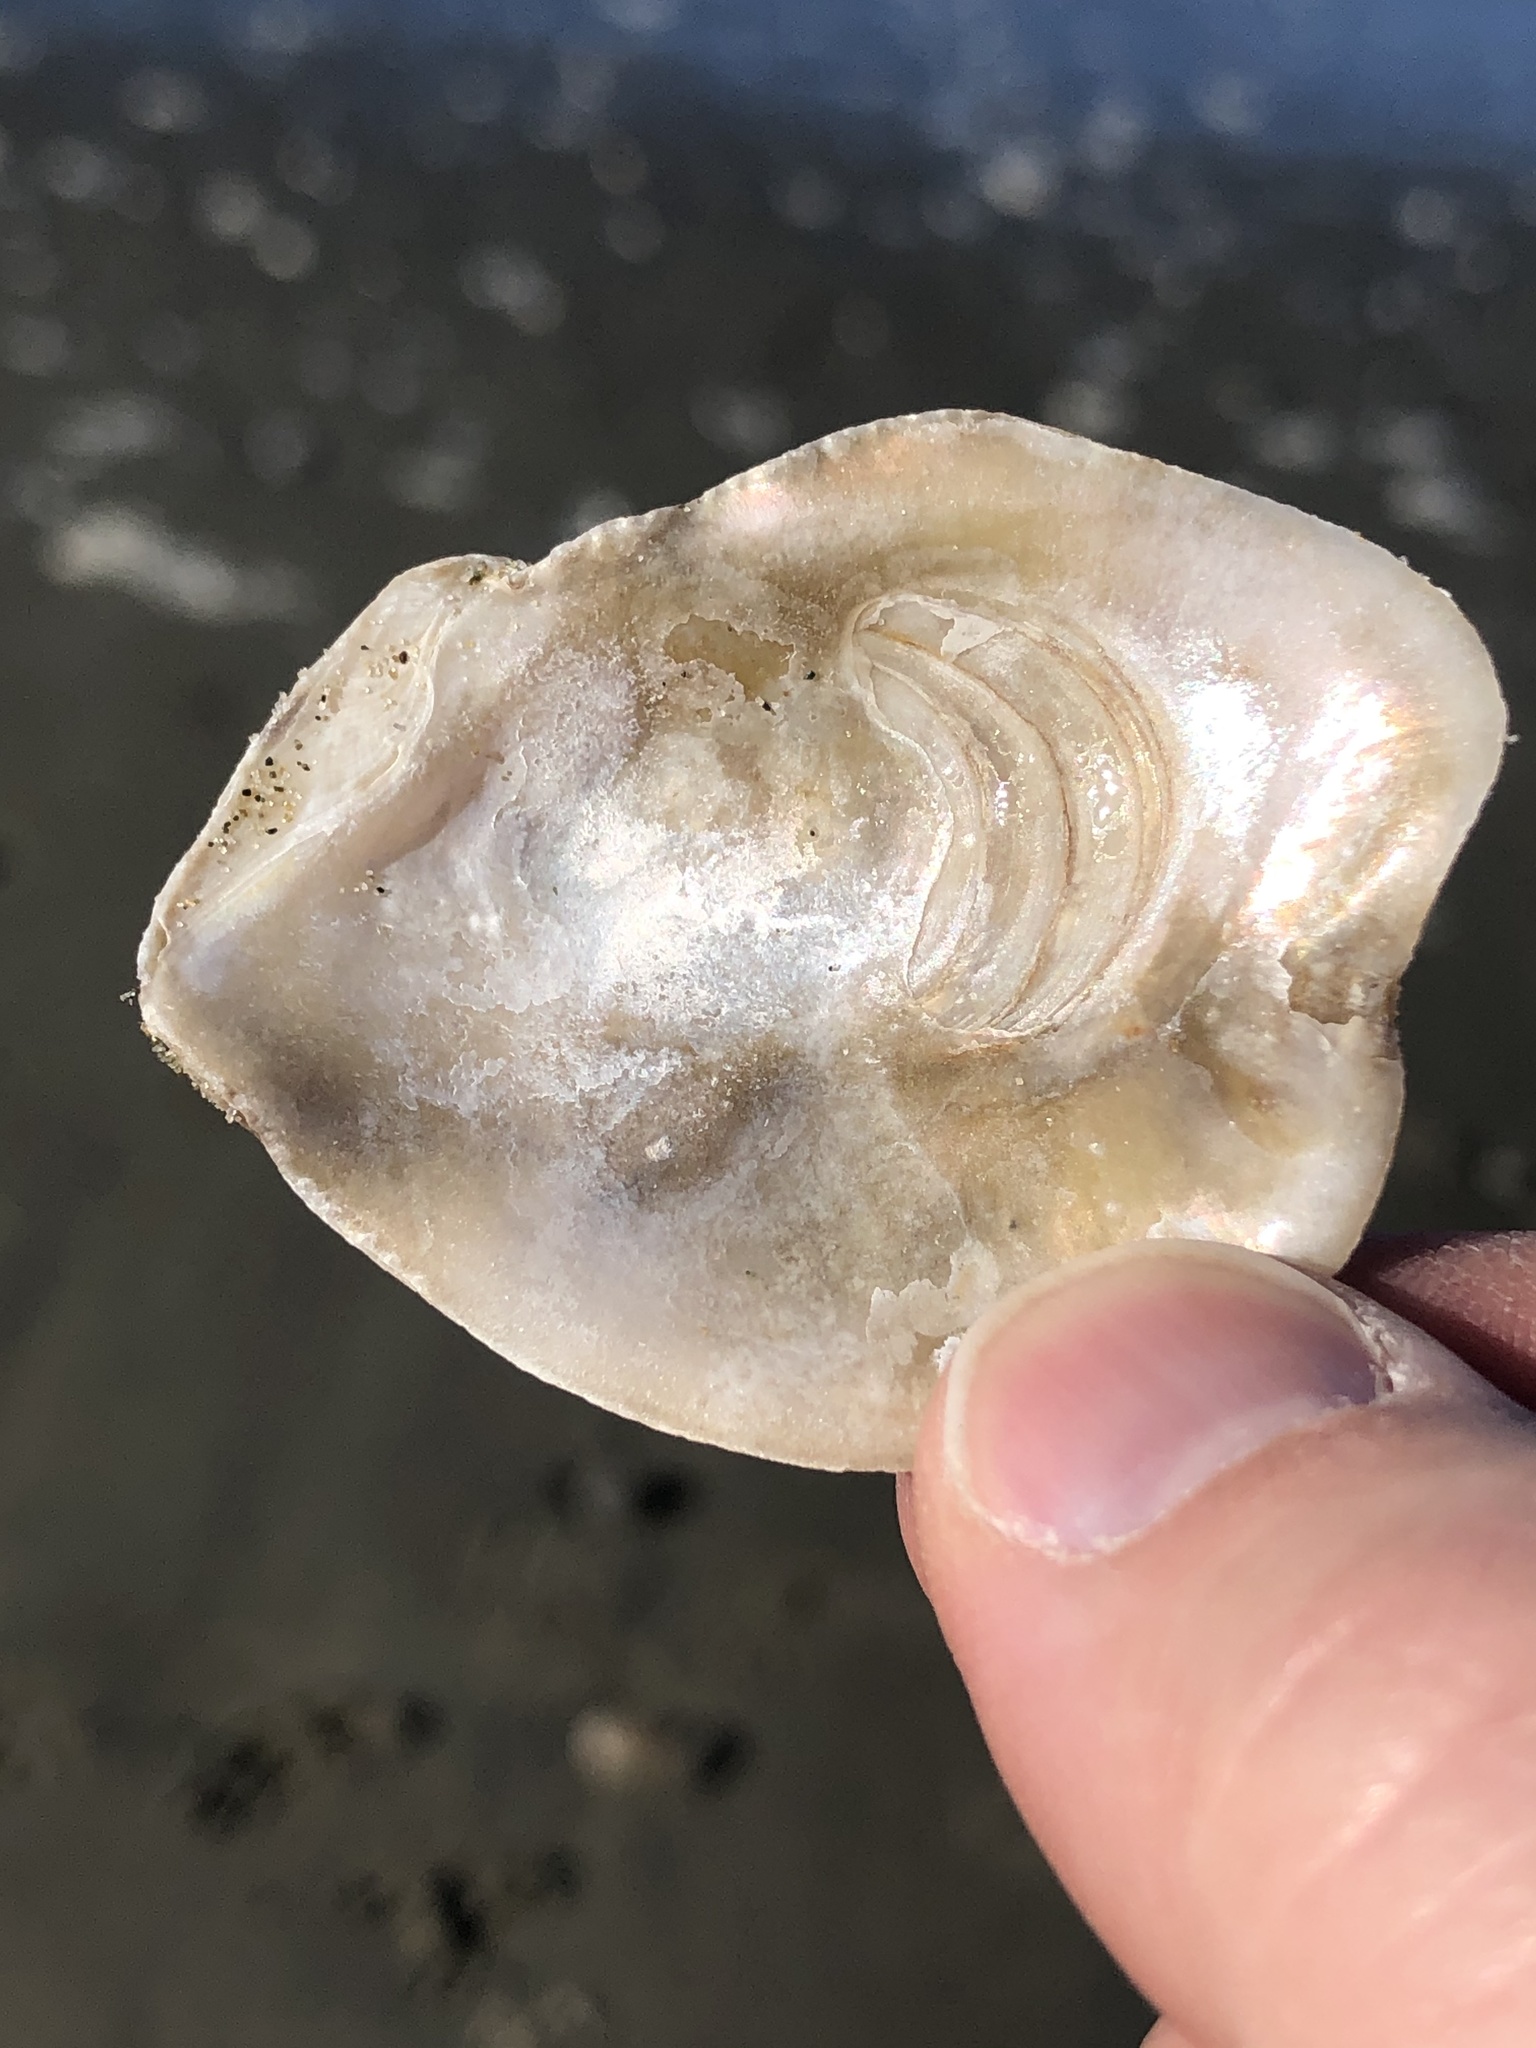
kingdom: Animalia
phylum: Mollusca
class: Bivalvia
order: Ostreida
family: Ostreidae
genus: Ostrea
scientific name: Ostrea chilensis
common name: Chilean oyster
